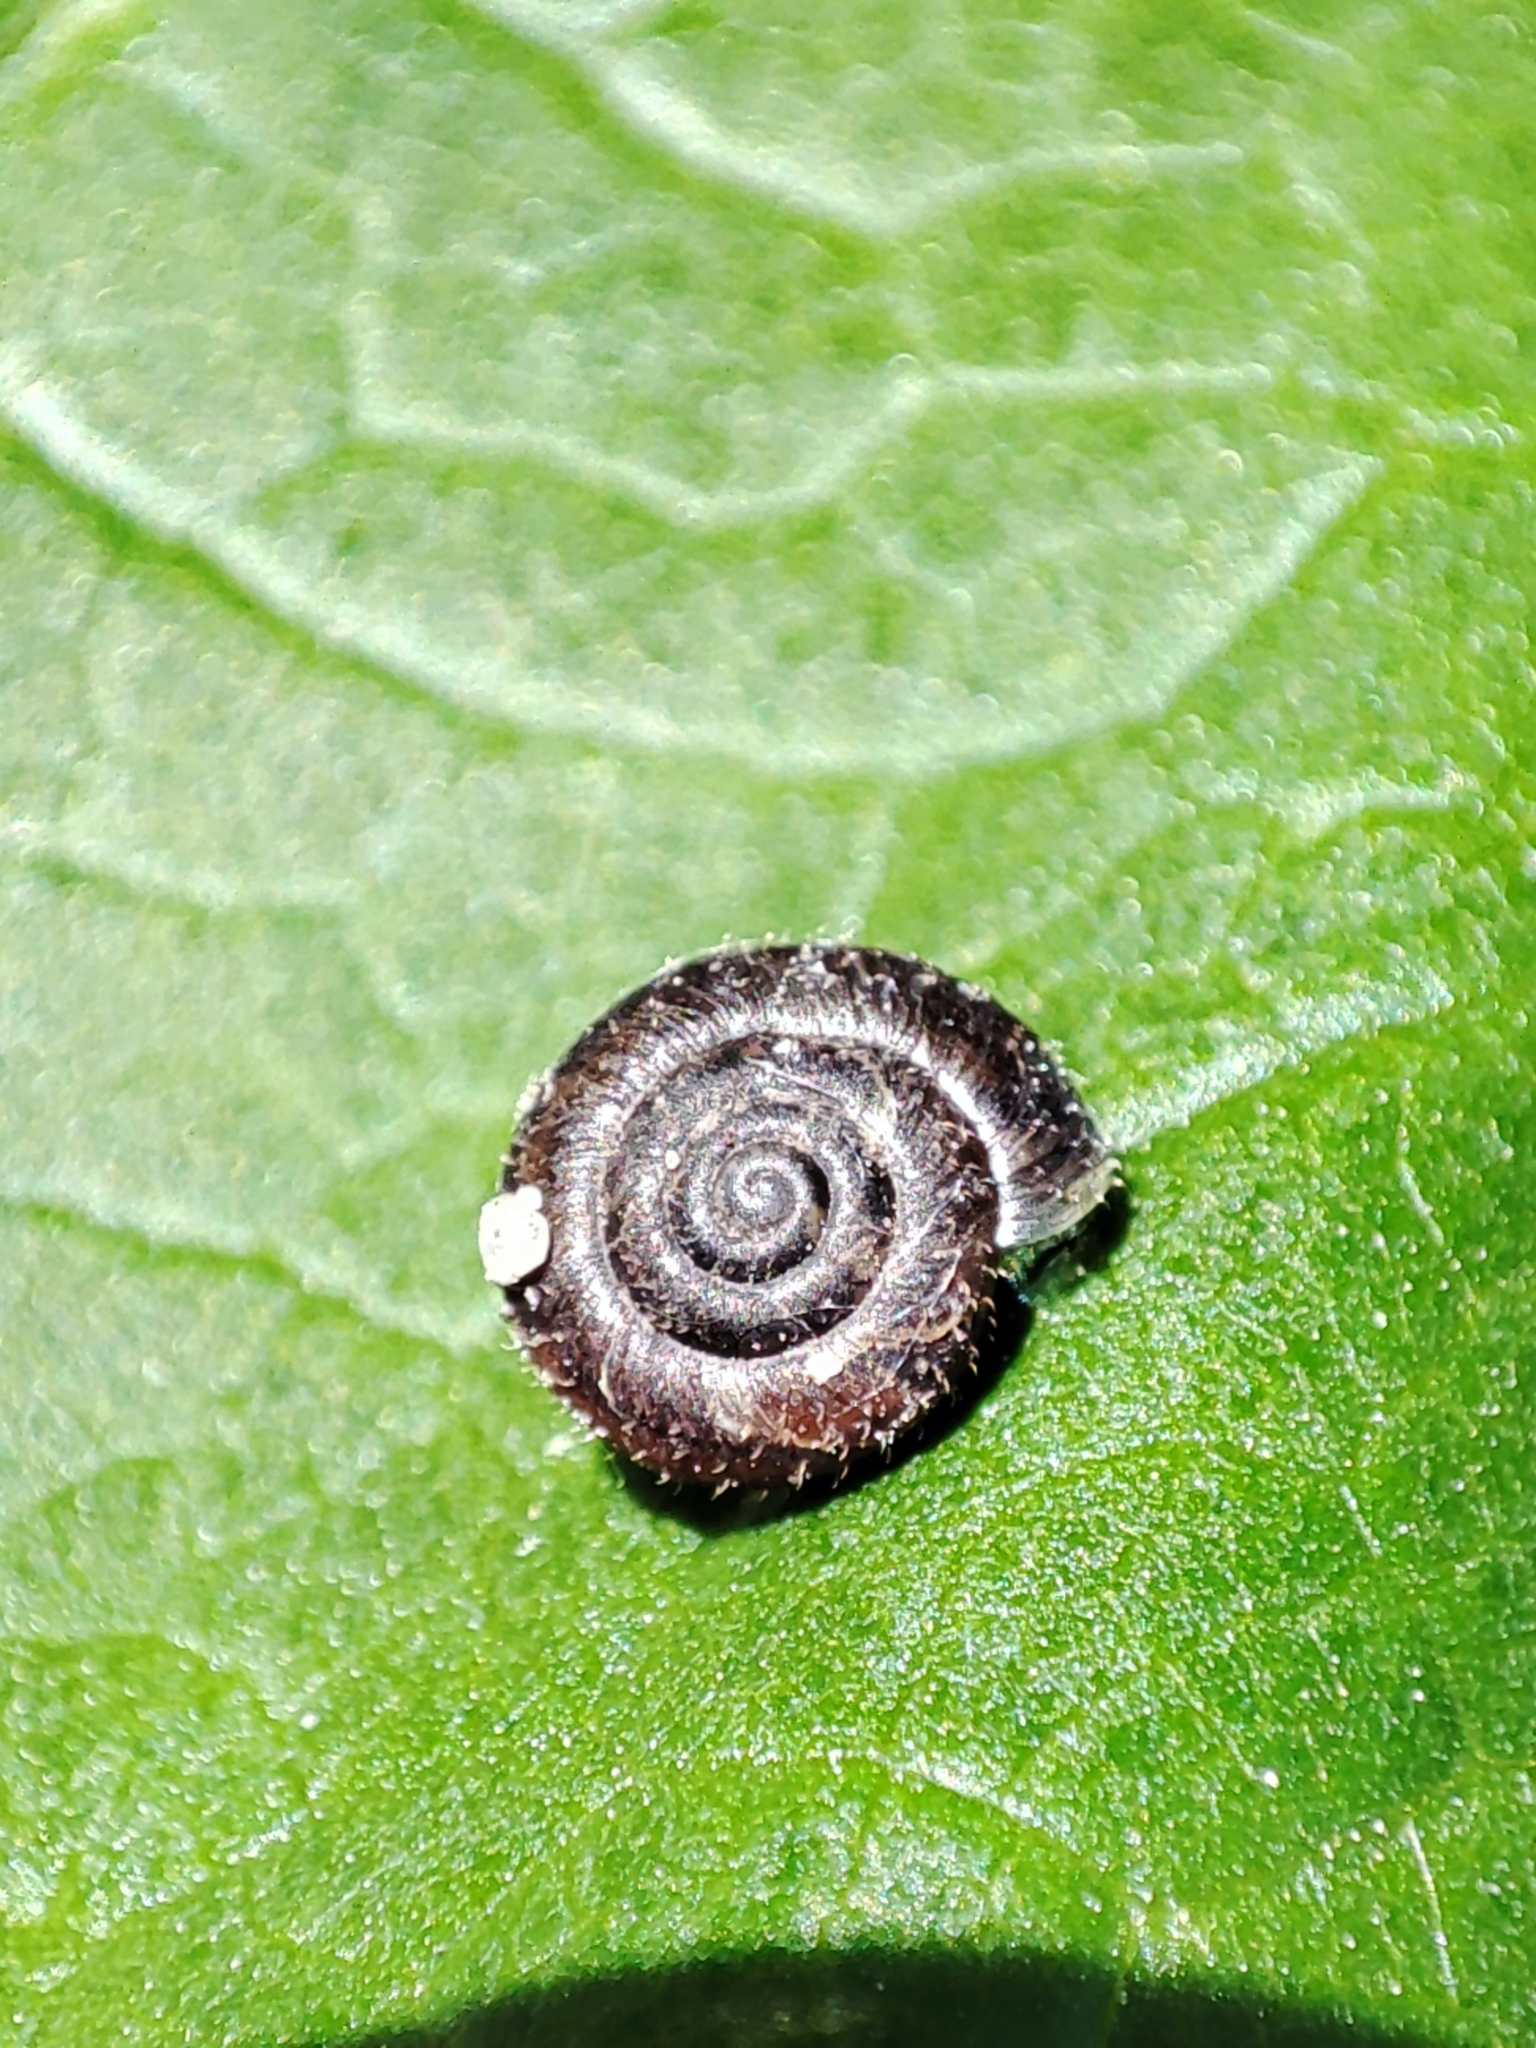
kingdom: Animalia
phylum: Mollusca
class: Gastropoda
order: Stylommatophora
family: Hygromiidae
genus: Trochulus
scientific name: Trochulus hispidus
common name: Hairy snail
